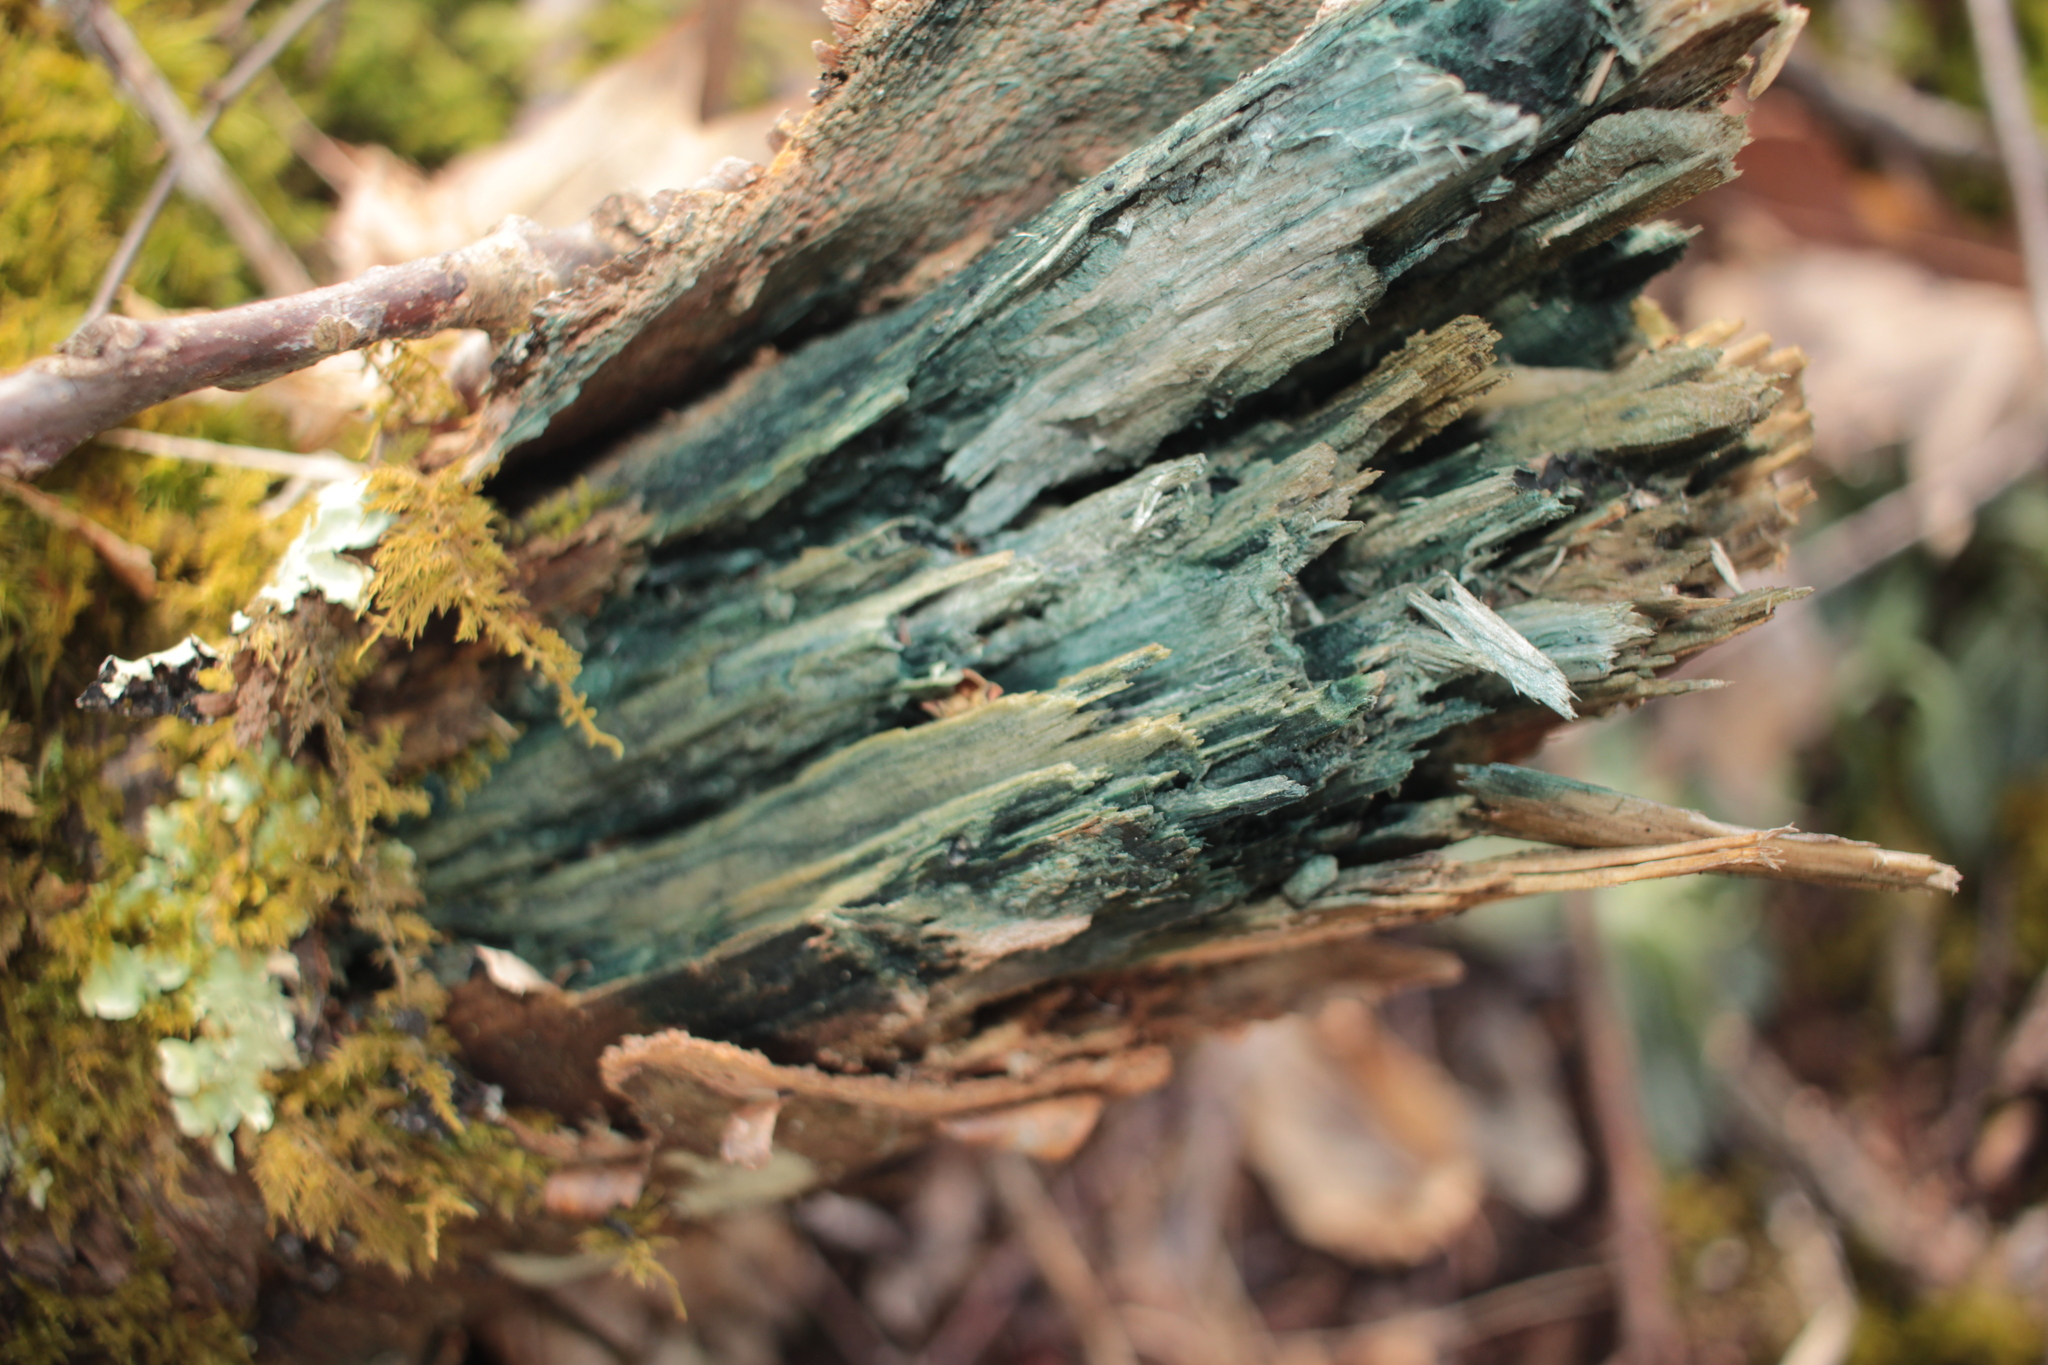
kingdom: Fungi
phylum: Ascomycota
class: Leotiomycetes
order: Helotiales
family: Chlorociboriaceae
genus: Chlorociboria
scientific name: Chlorociboria
